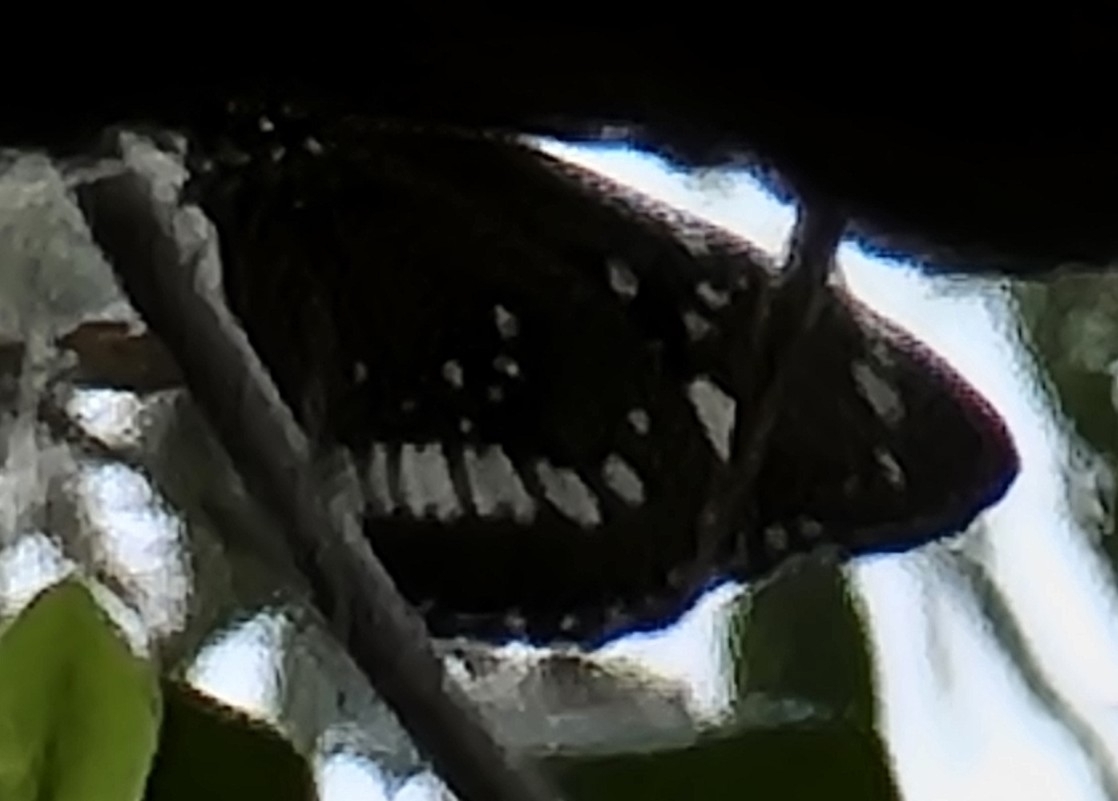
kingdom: Animalia
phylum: Arthropoda
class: Insecta
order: Lepidoptera
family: Nymphalidae
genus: Euploea
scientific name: Euploea core
